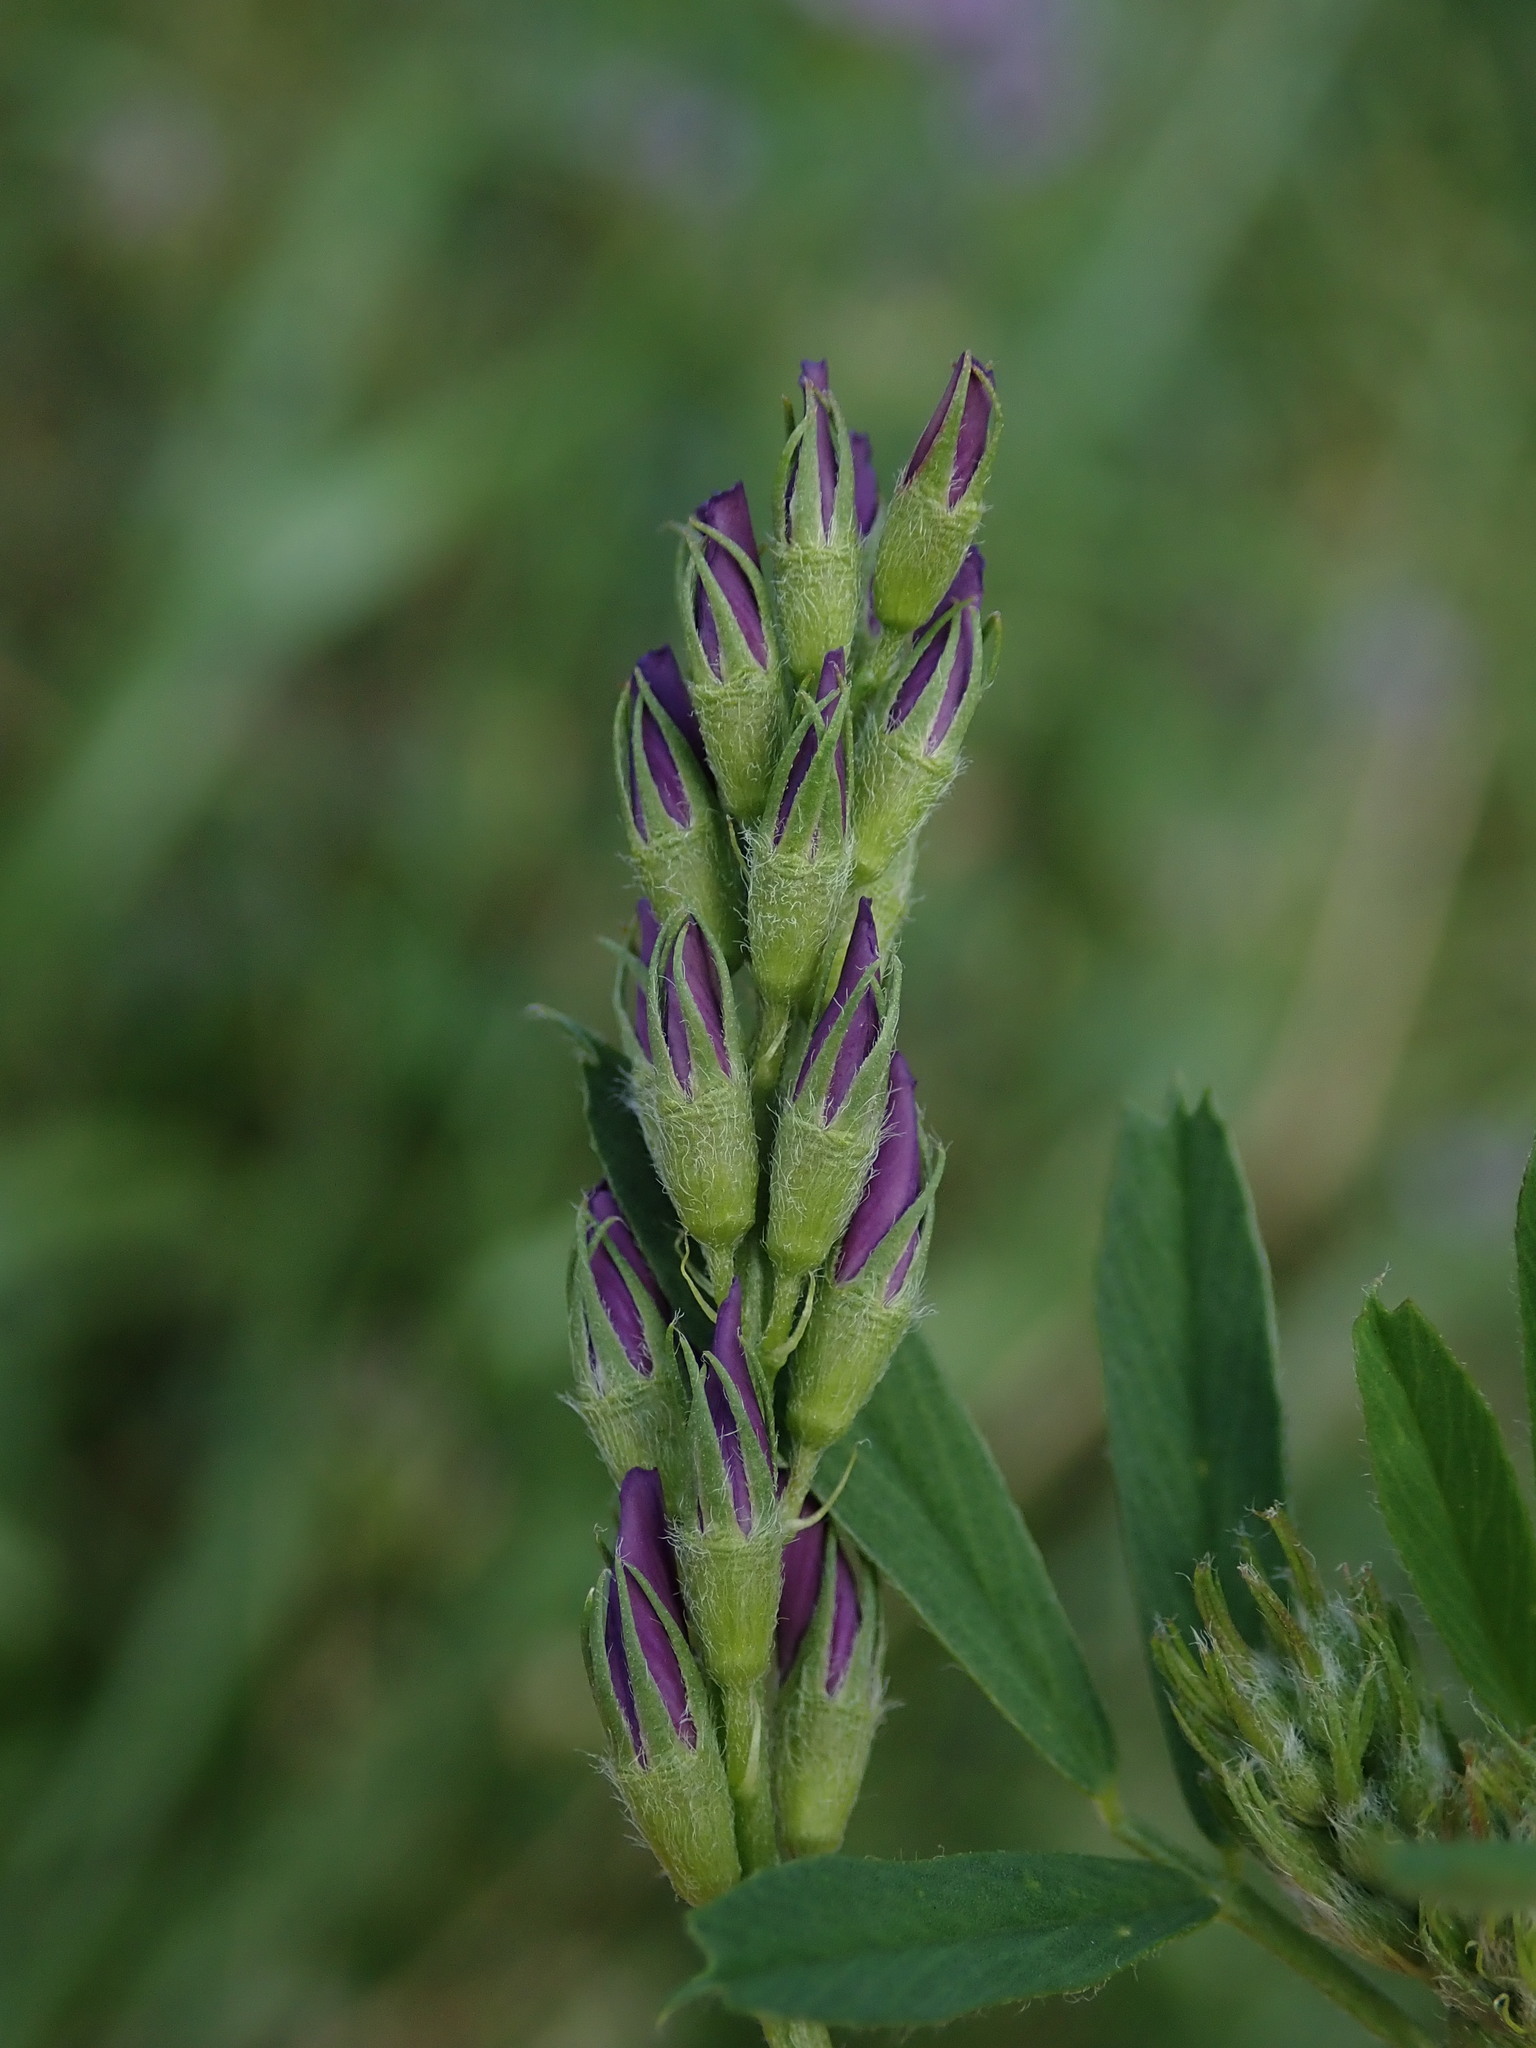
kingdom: Plantae
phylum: Tracheophyta
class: Magnoliopsida
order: Fabales
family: Fabaceae
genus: Medicago
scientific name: Medicago sativa
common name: Alfalfa
